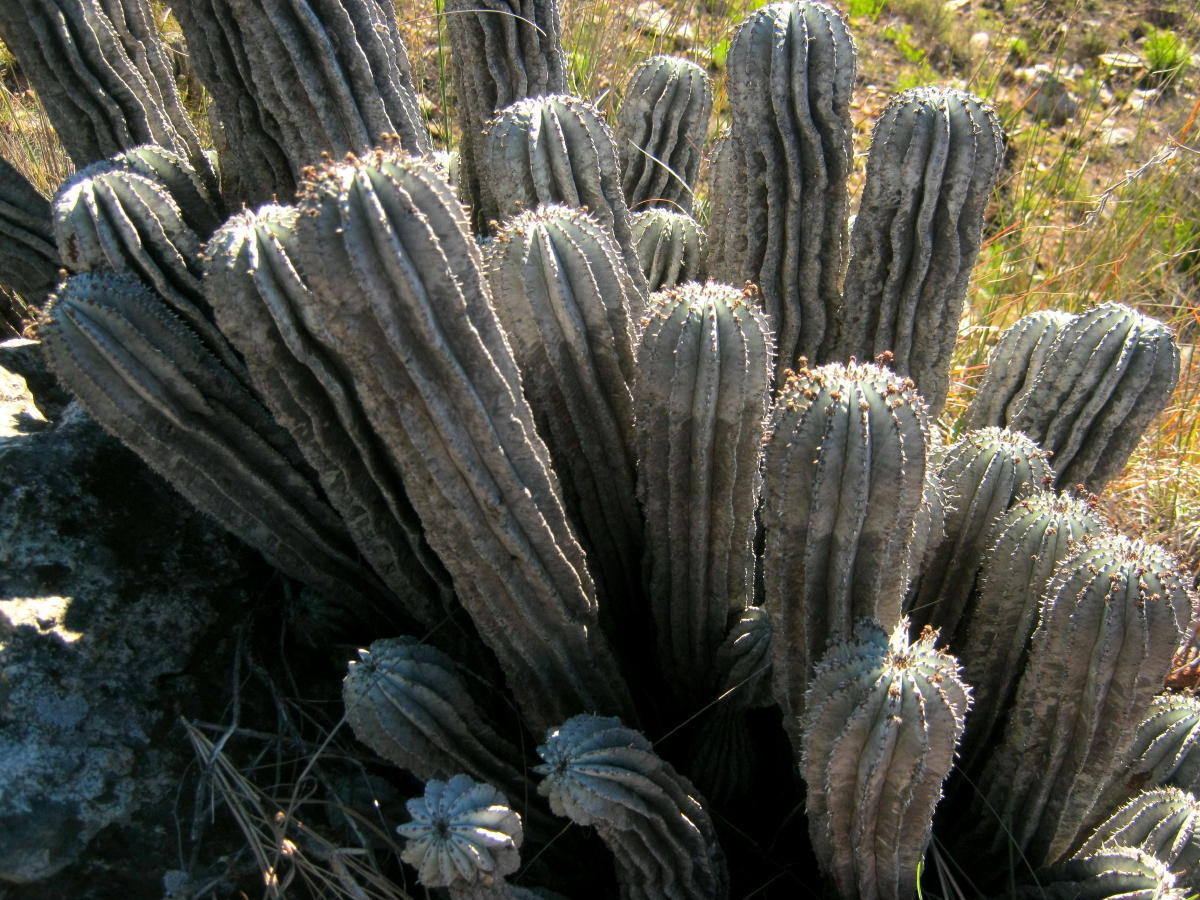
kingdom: Plantae
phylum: Tracheophyta
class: Magnoliopsida
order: Malpighiales
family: Euphorbiaceae
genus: Euphorbia
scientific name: Euphorbia polygona
